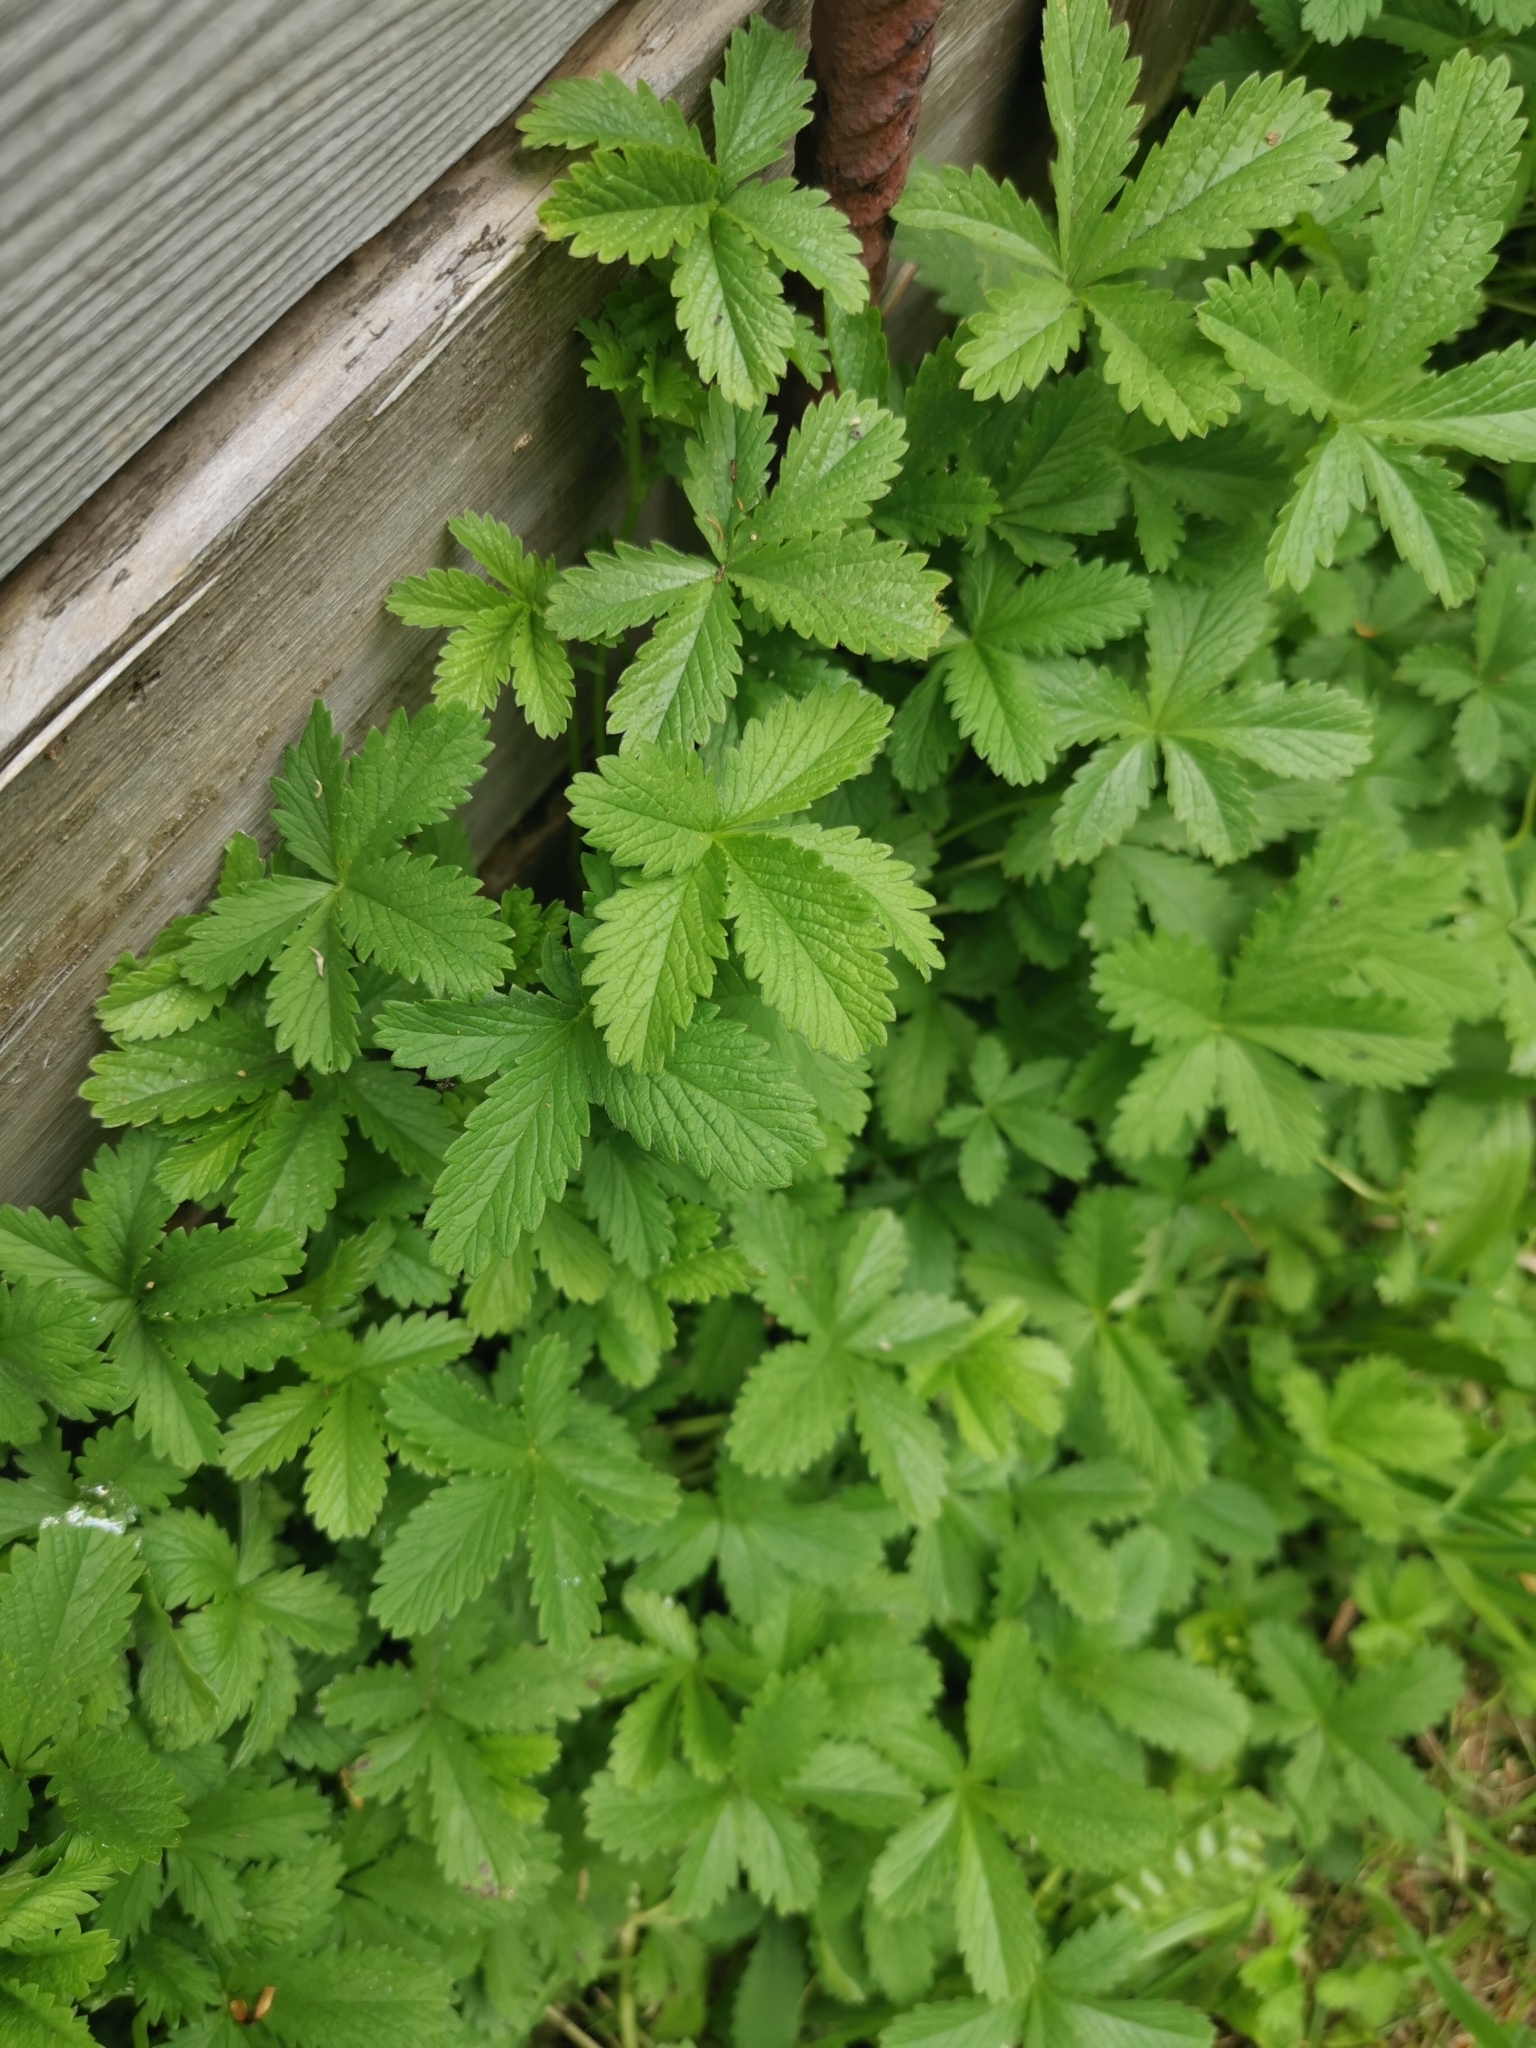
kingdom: Plantae
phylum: Tracheophyta
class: Magnoliopsida
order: Rosales
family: Rosaceae
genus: Potentilla
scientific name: Potentilla reptans
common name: Creeping cinquefoil
